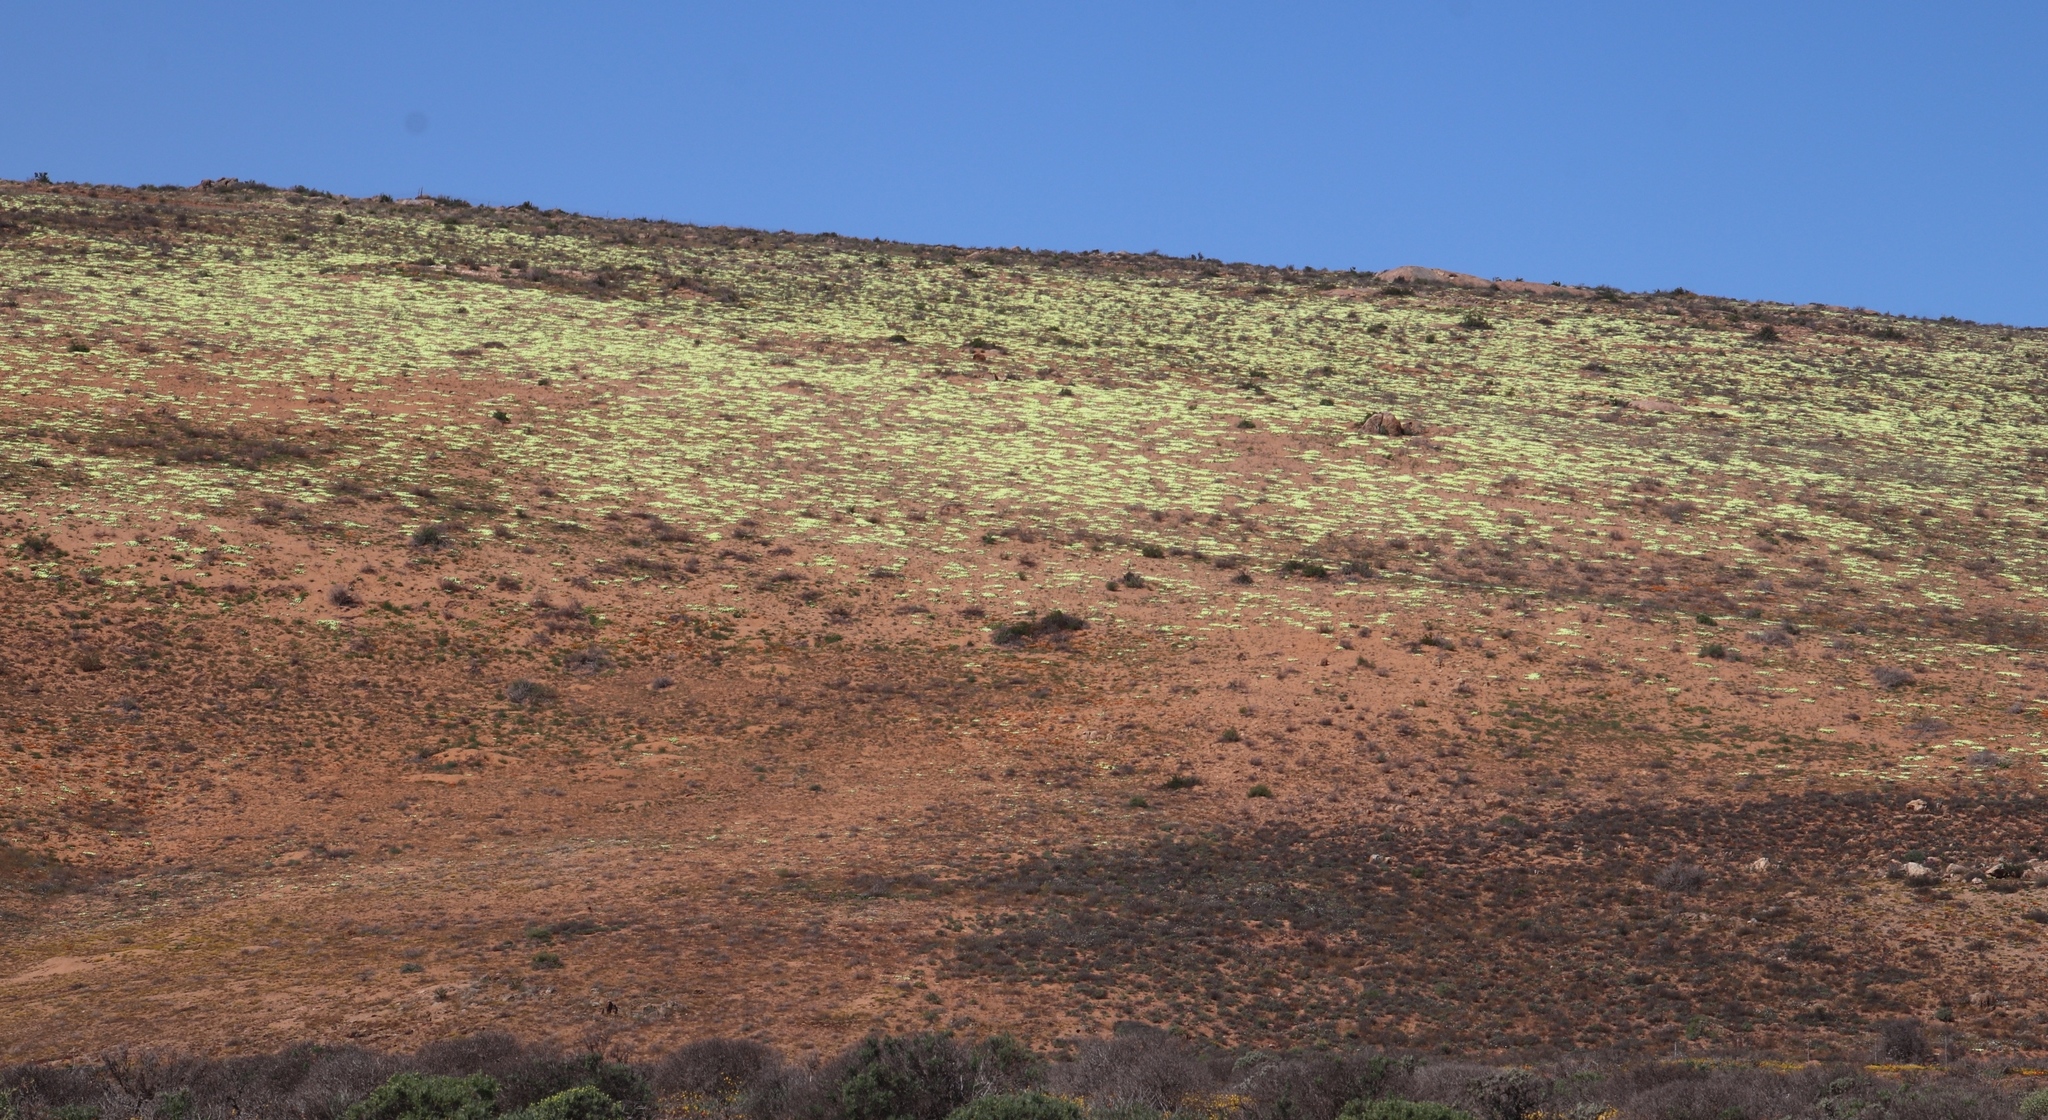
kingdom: Plantae
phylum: Tracheophyta
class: Magnoliopsida
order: Malvales
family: Neuradaceae
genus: Grielum
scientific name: Grielum humifusum
